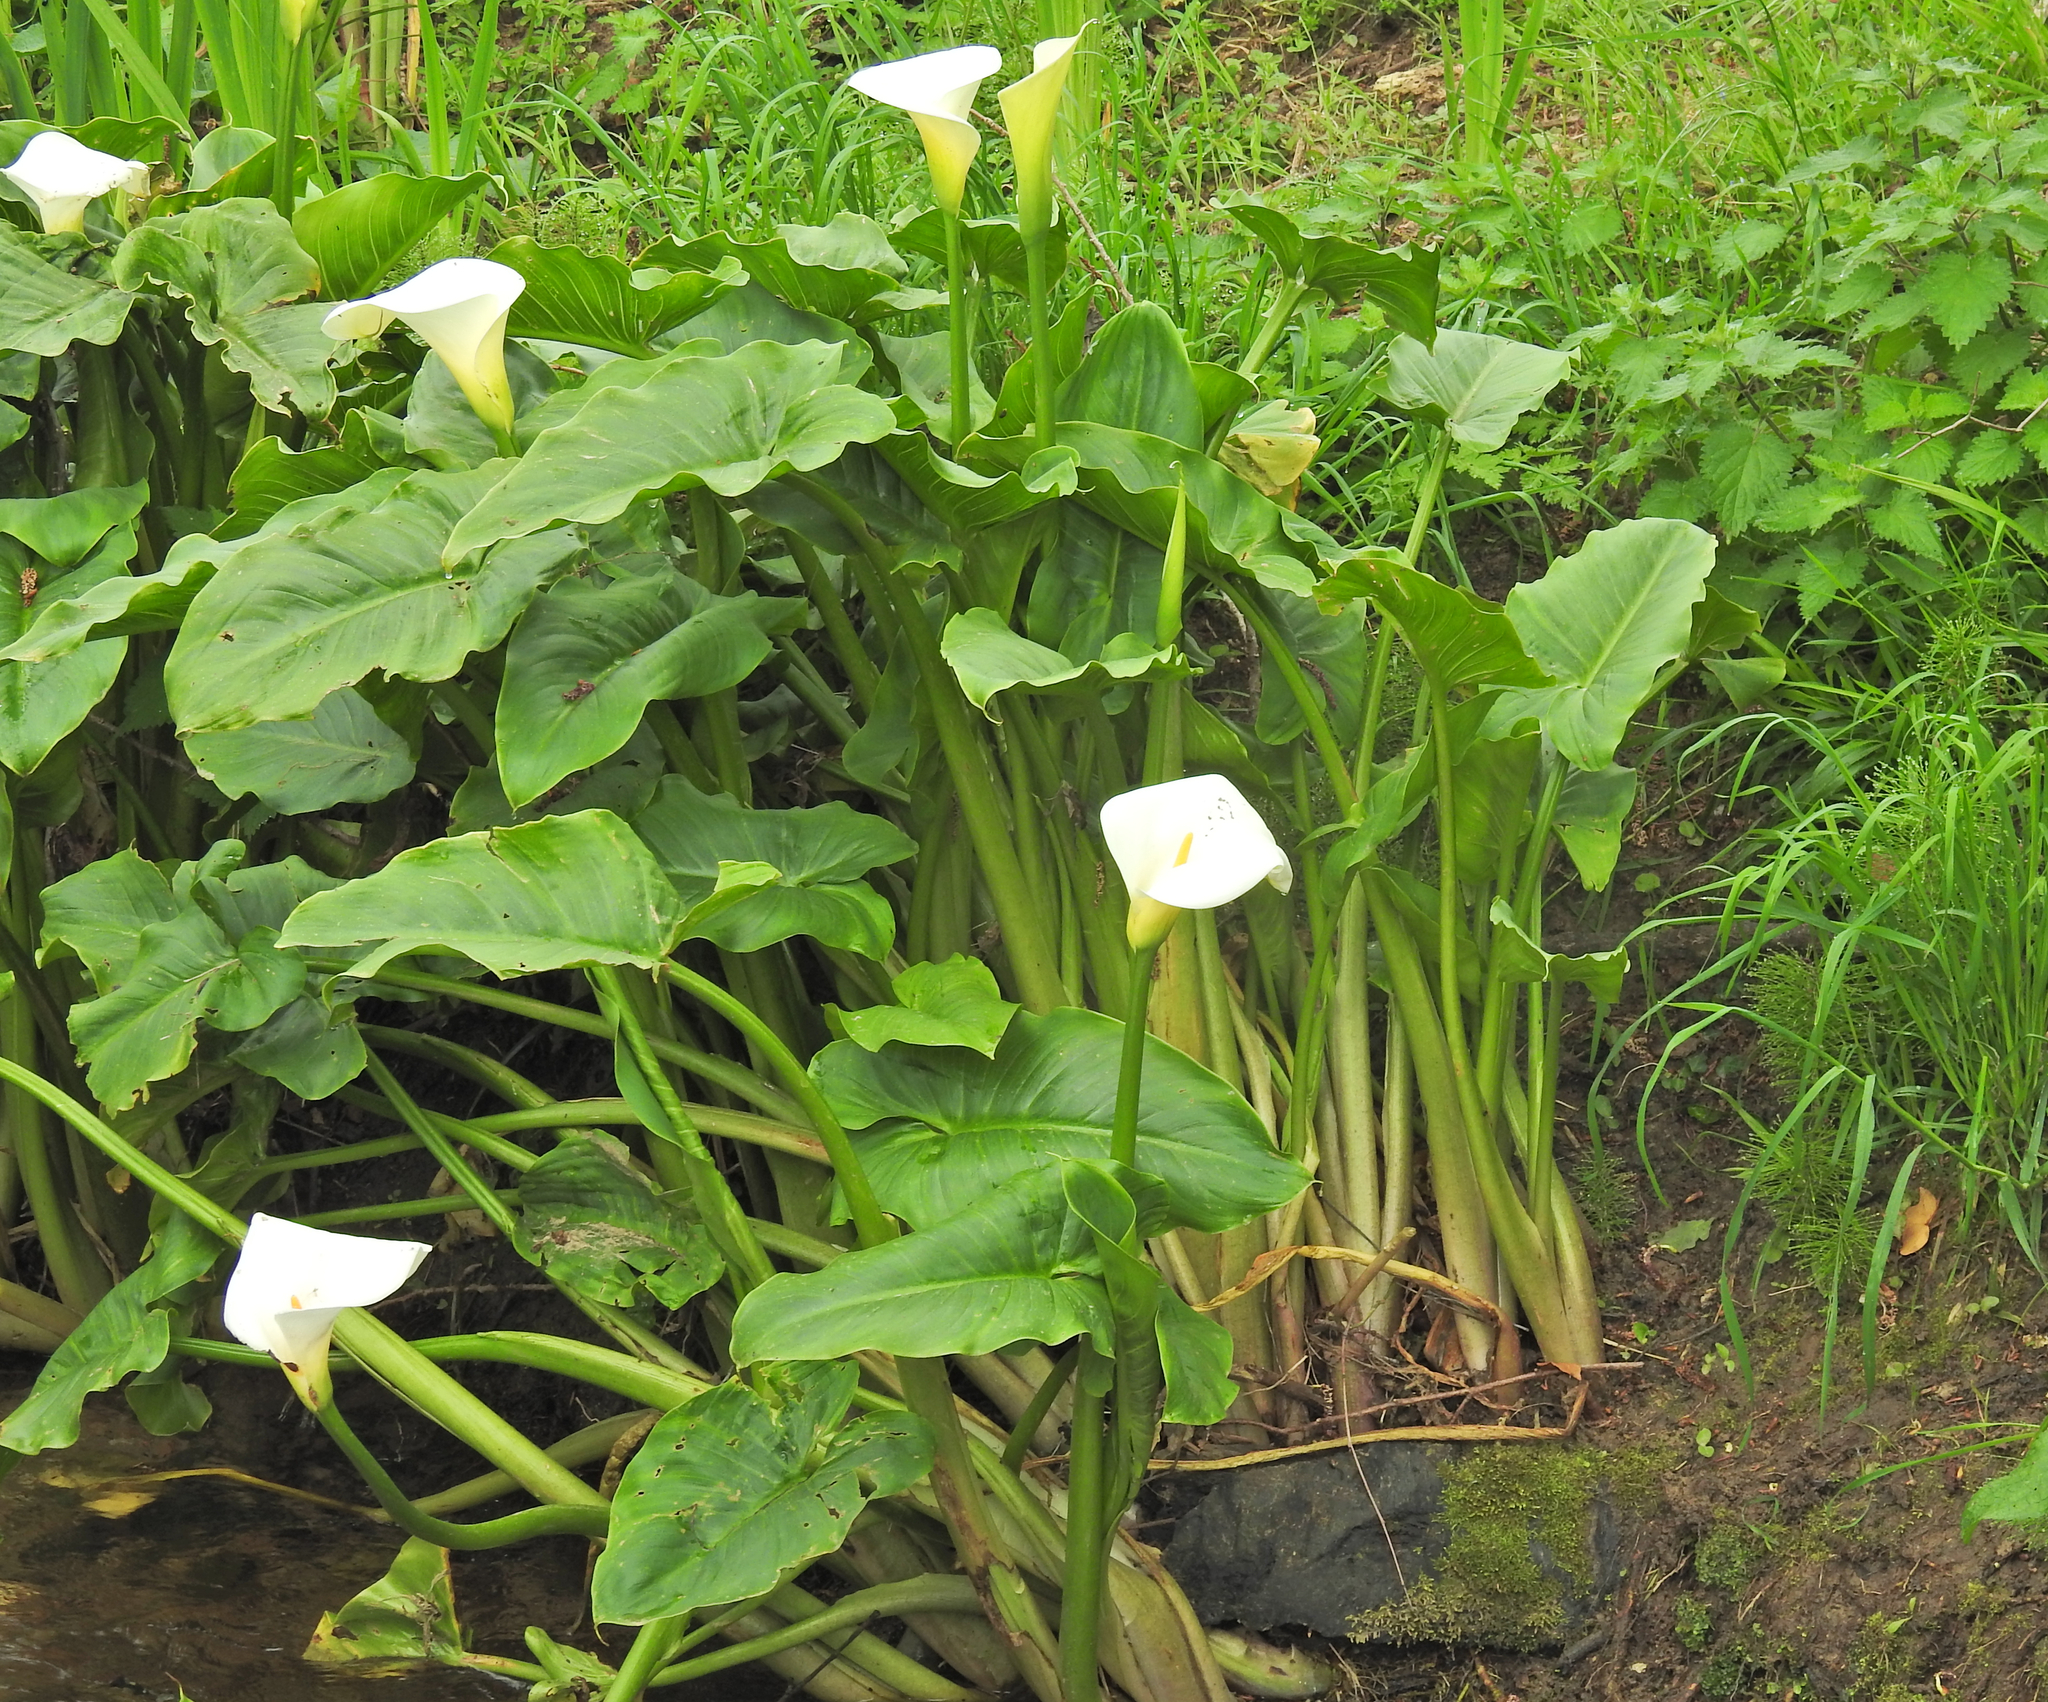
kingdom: Plantae
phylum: Tracheophyta
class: Liliopsida
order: Alismatales
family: Araceae
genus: Zantedeschia
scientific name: Zantedeschia aethiopica
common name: Altar-lily
